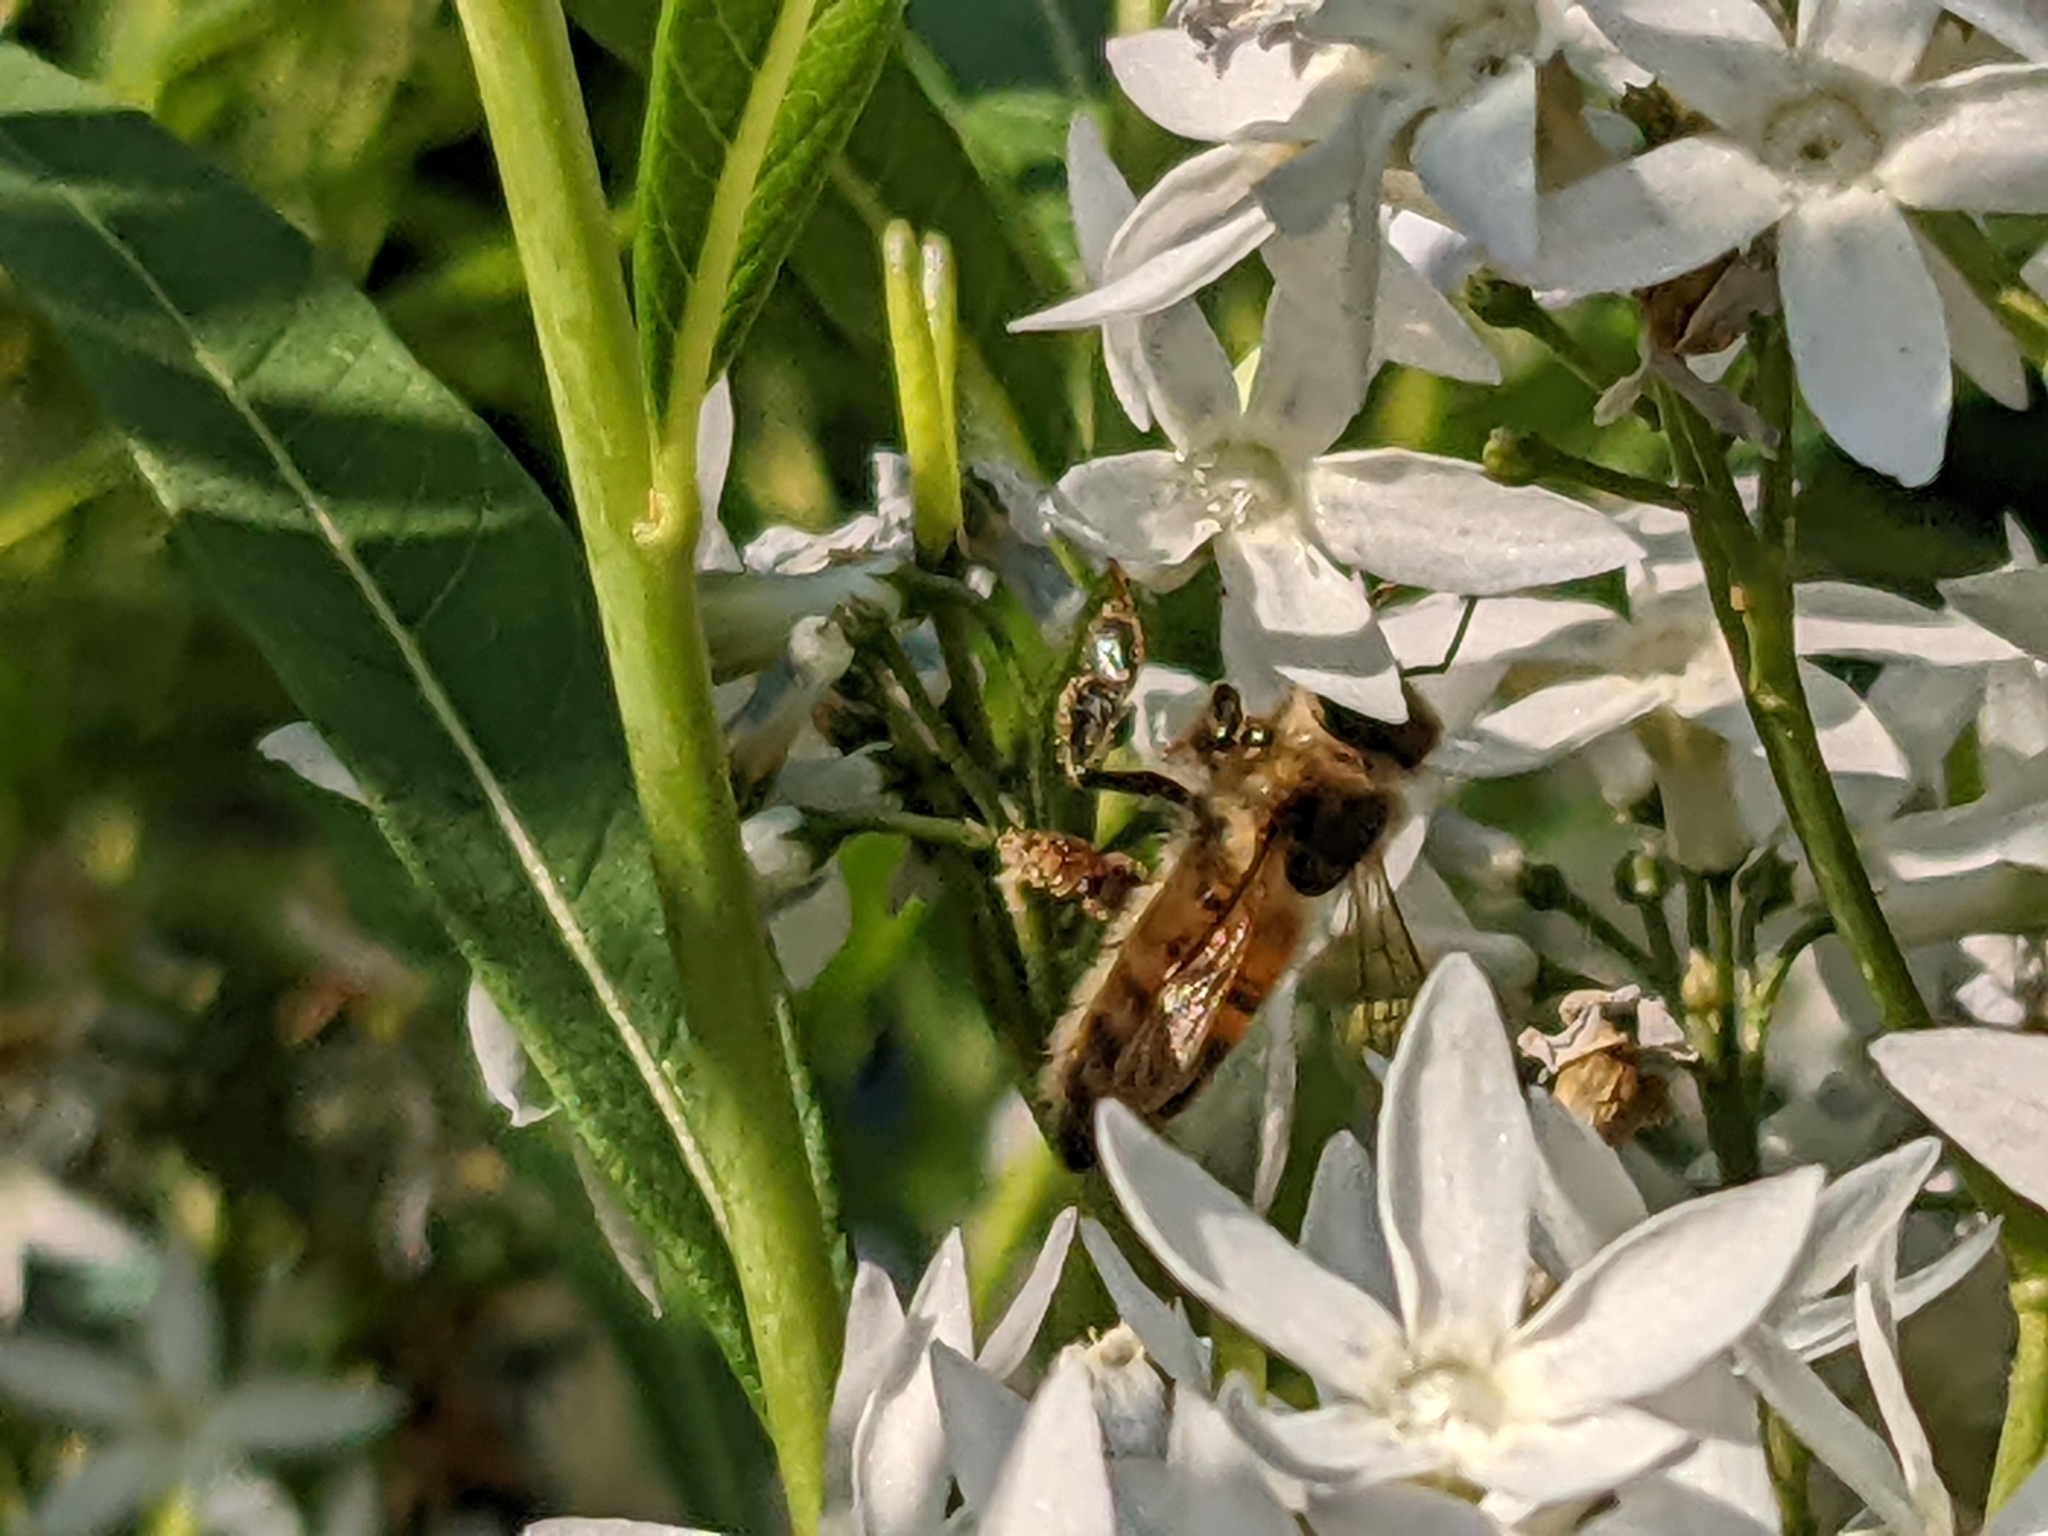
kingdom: Animalia
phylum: Arthropoda
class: Insecta
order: Hymenoptera
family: Apidae
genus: Apis
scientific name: Apis mellifera
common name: Honey bee
